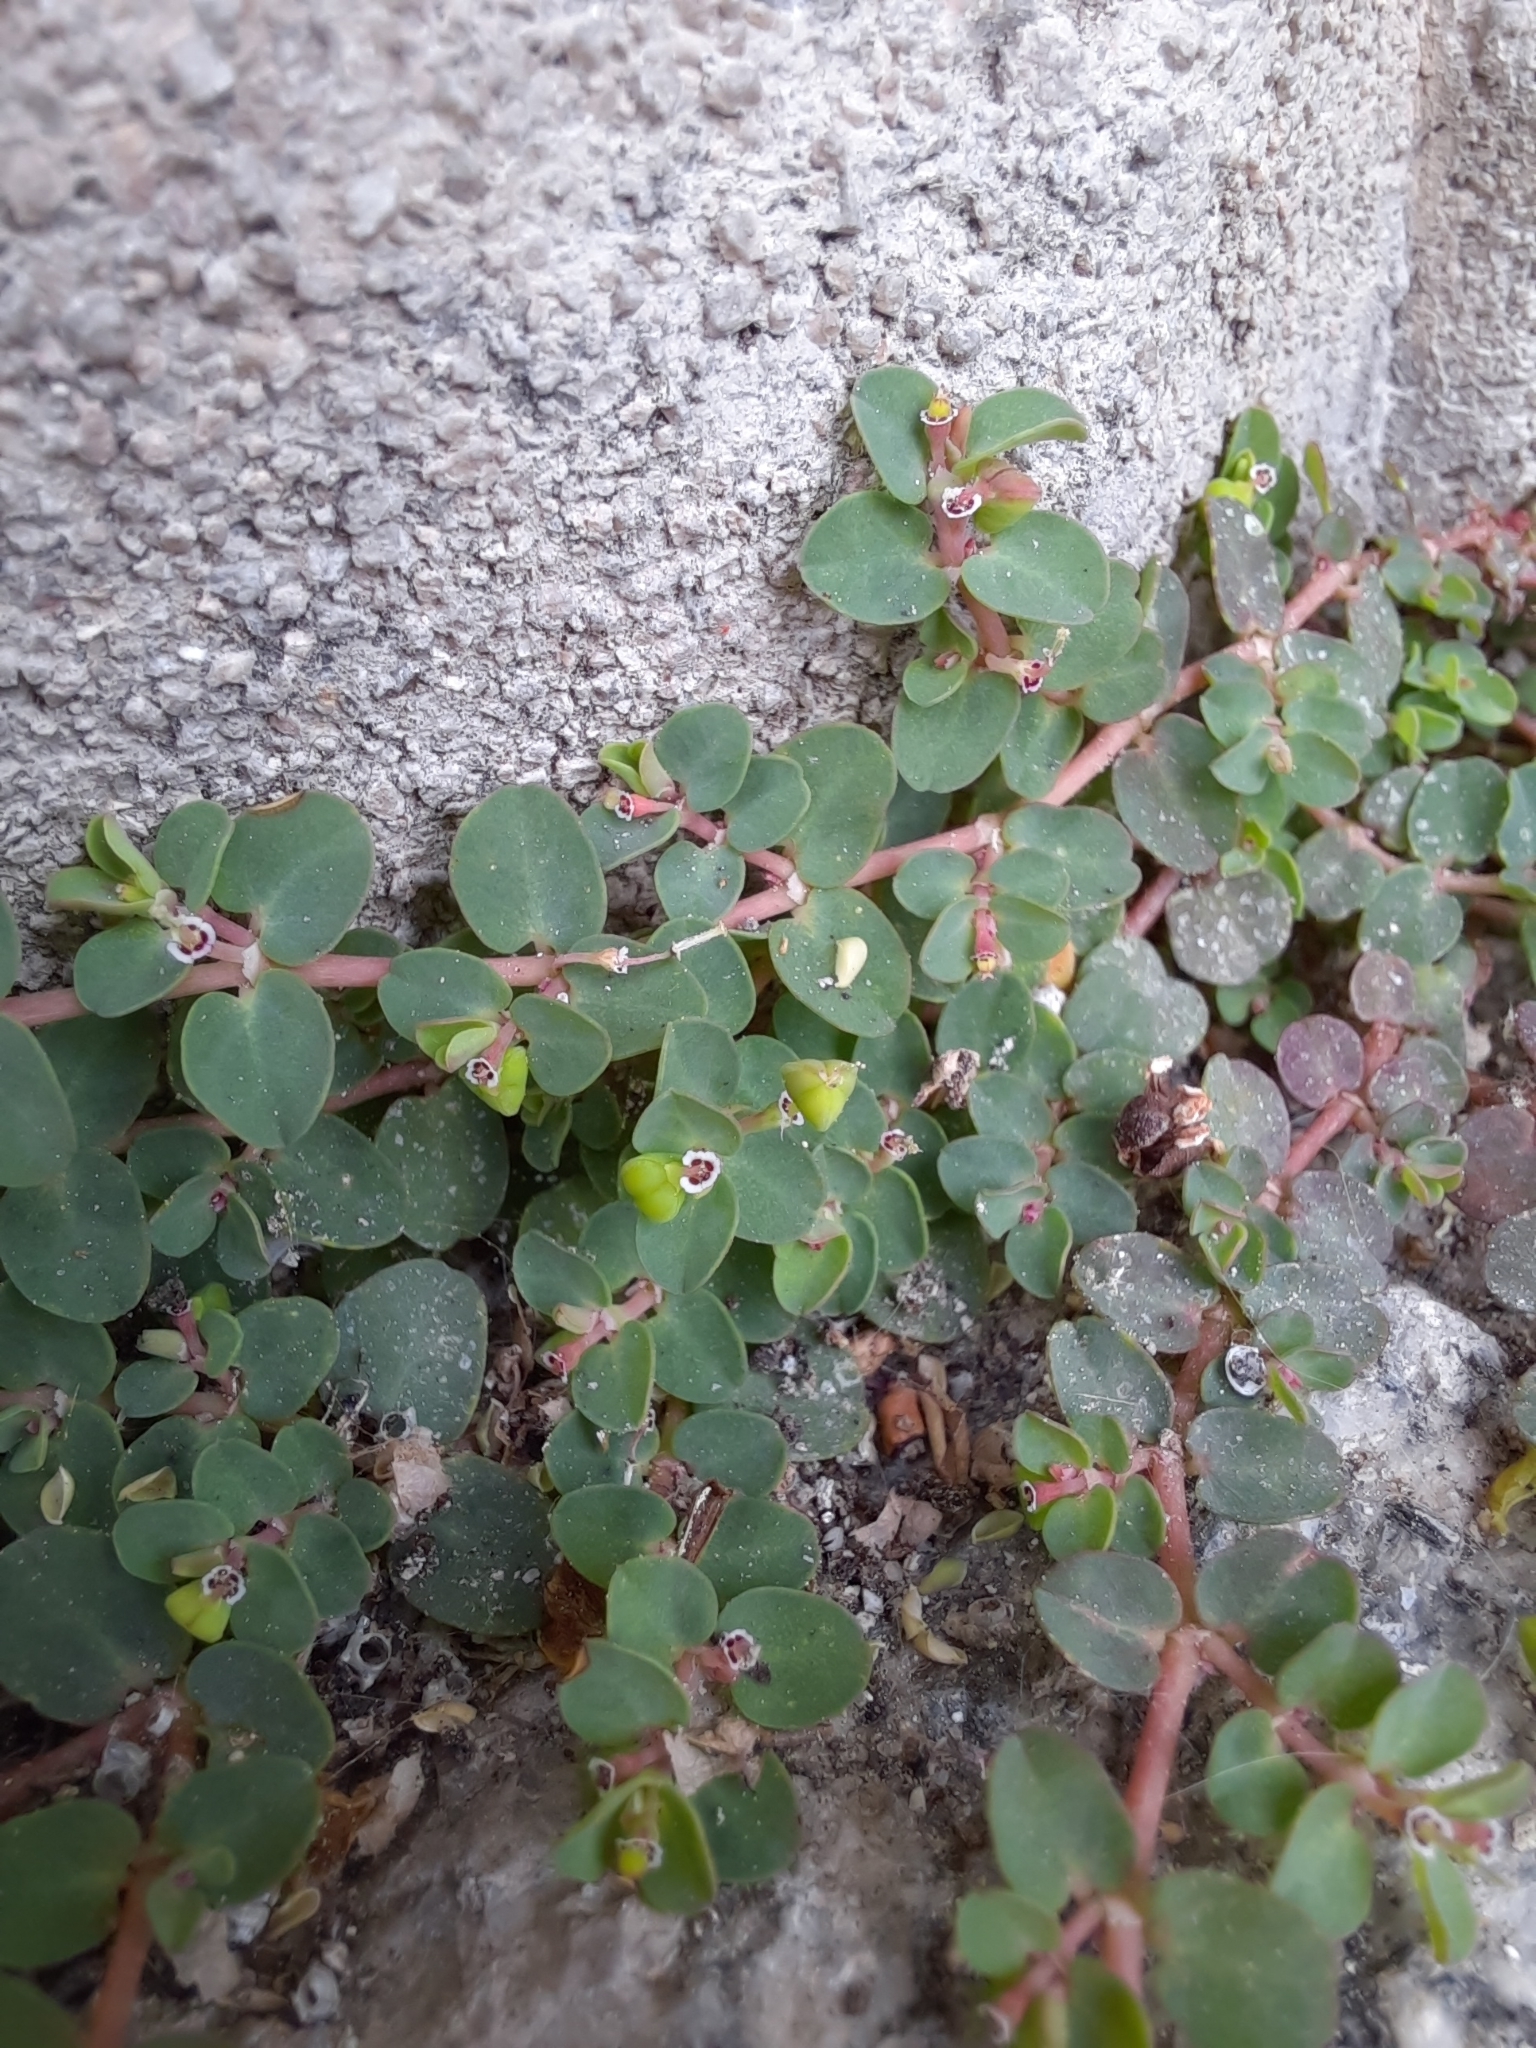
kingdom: Plantae
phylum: Tracheophyta
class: Magnoliopsida
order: Malpighiales
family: Euphorbiaceae
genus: Euphorbia
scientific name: Euphorbia serpens
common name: Matted sandmat
